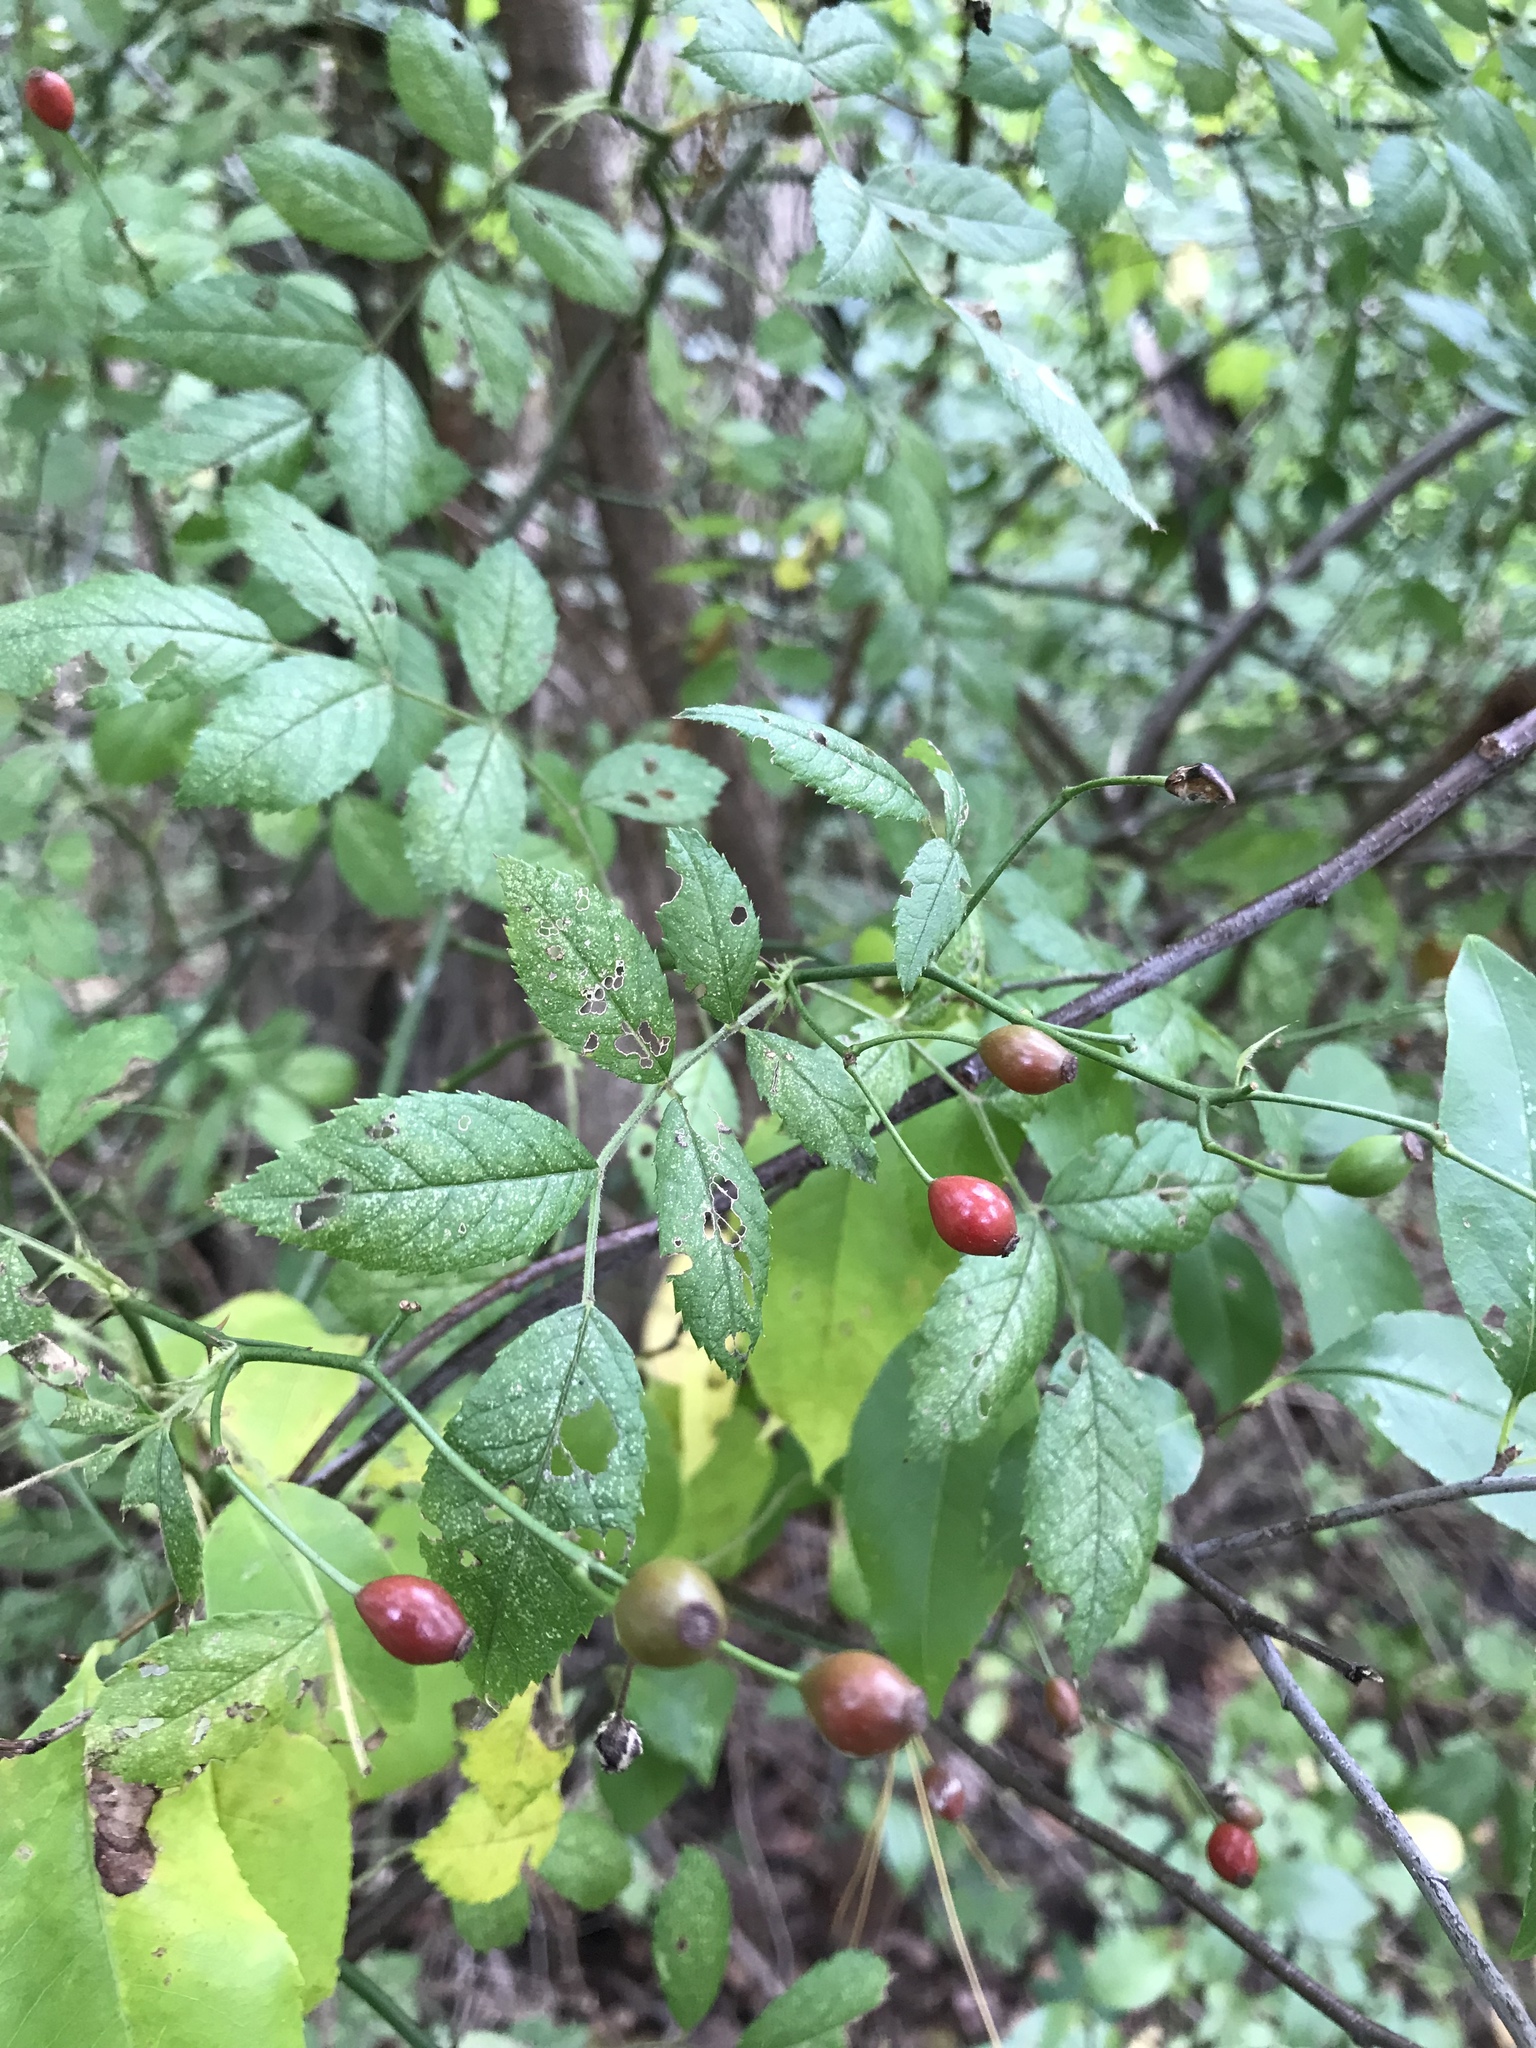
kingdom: Plantae
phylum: Tracheophyta
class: Magnoliopsida
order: Rosales
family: Rosaceae
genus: Rosa
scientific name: Rosa multiflora
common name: Multiflora rose
